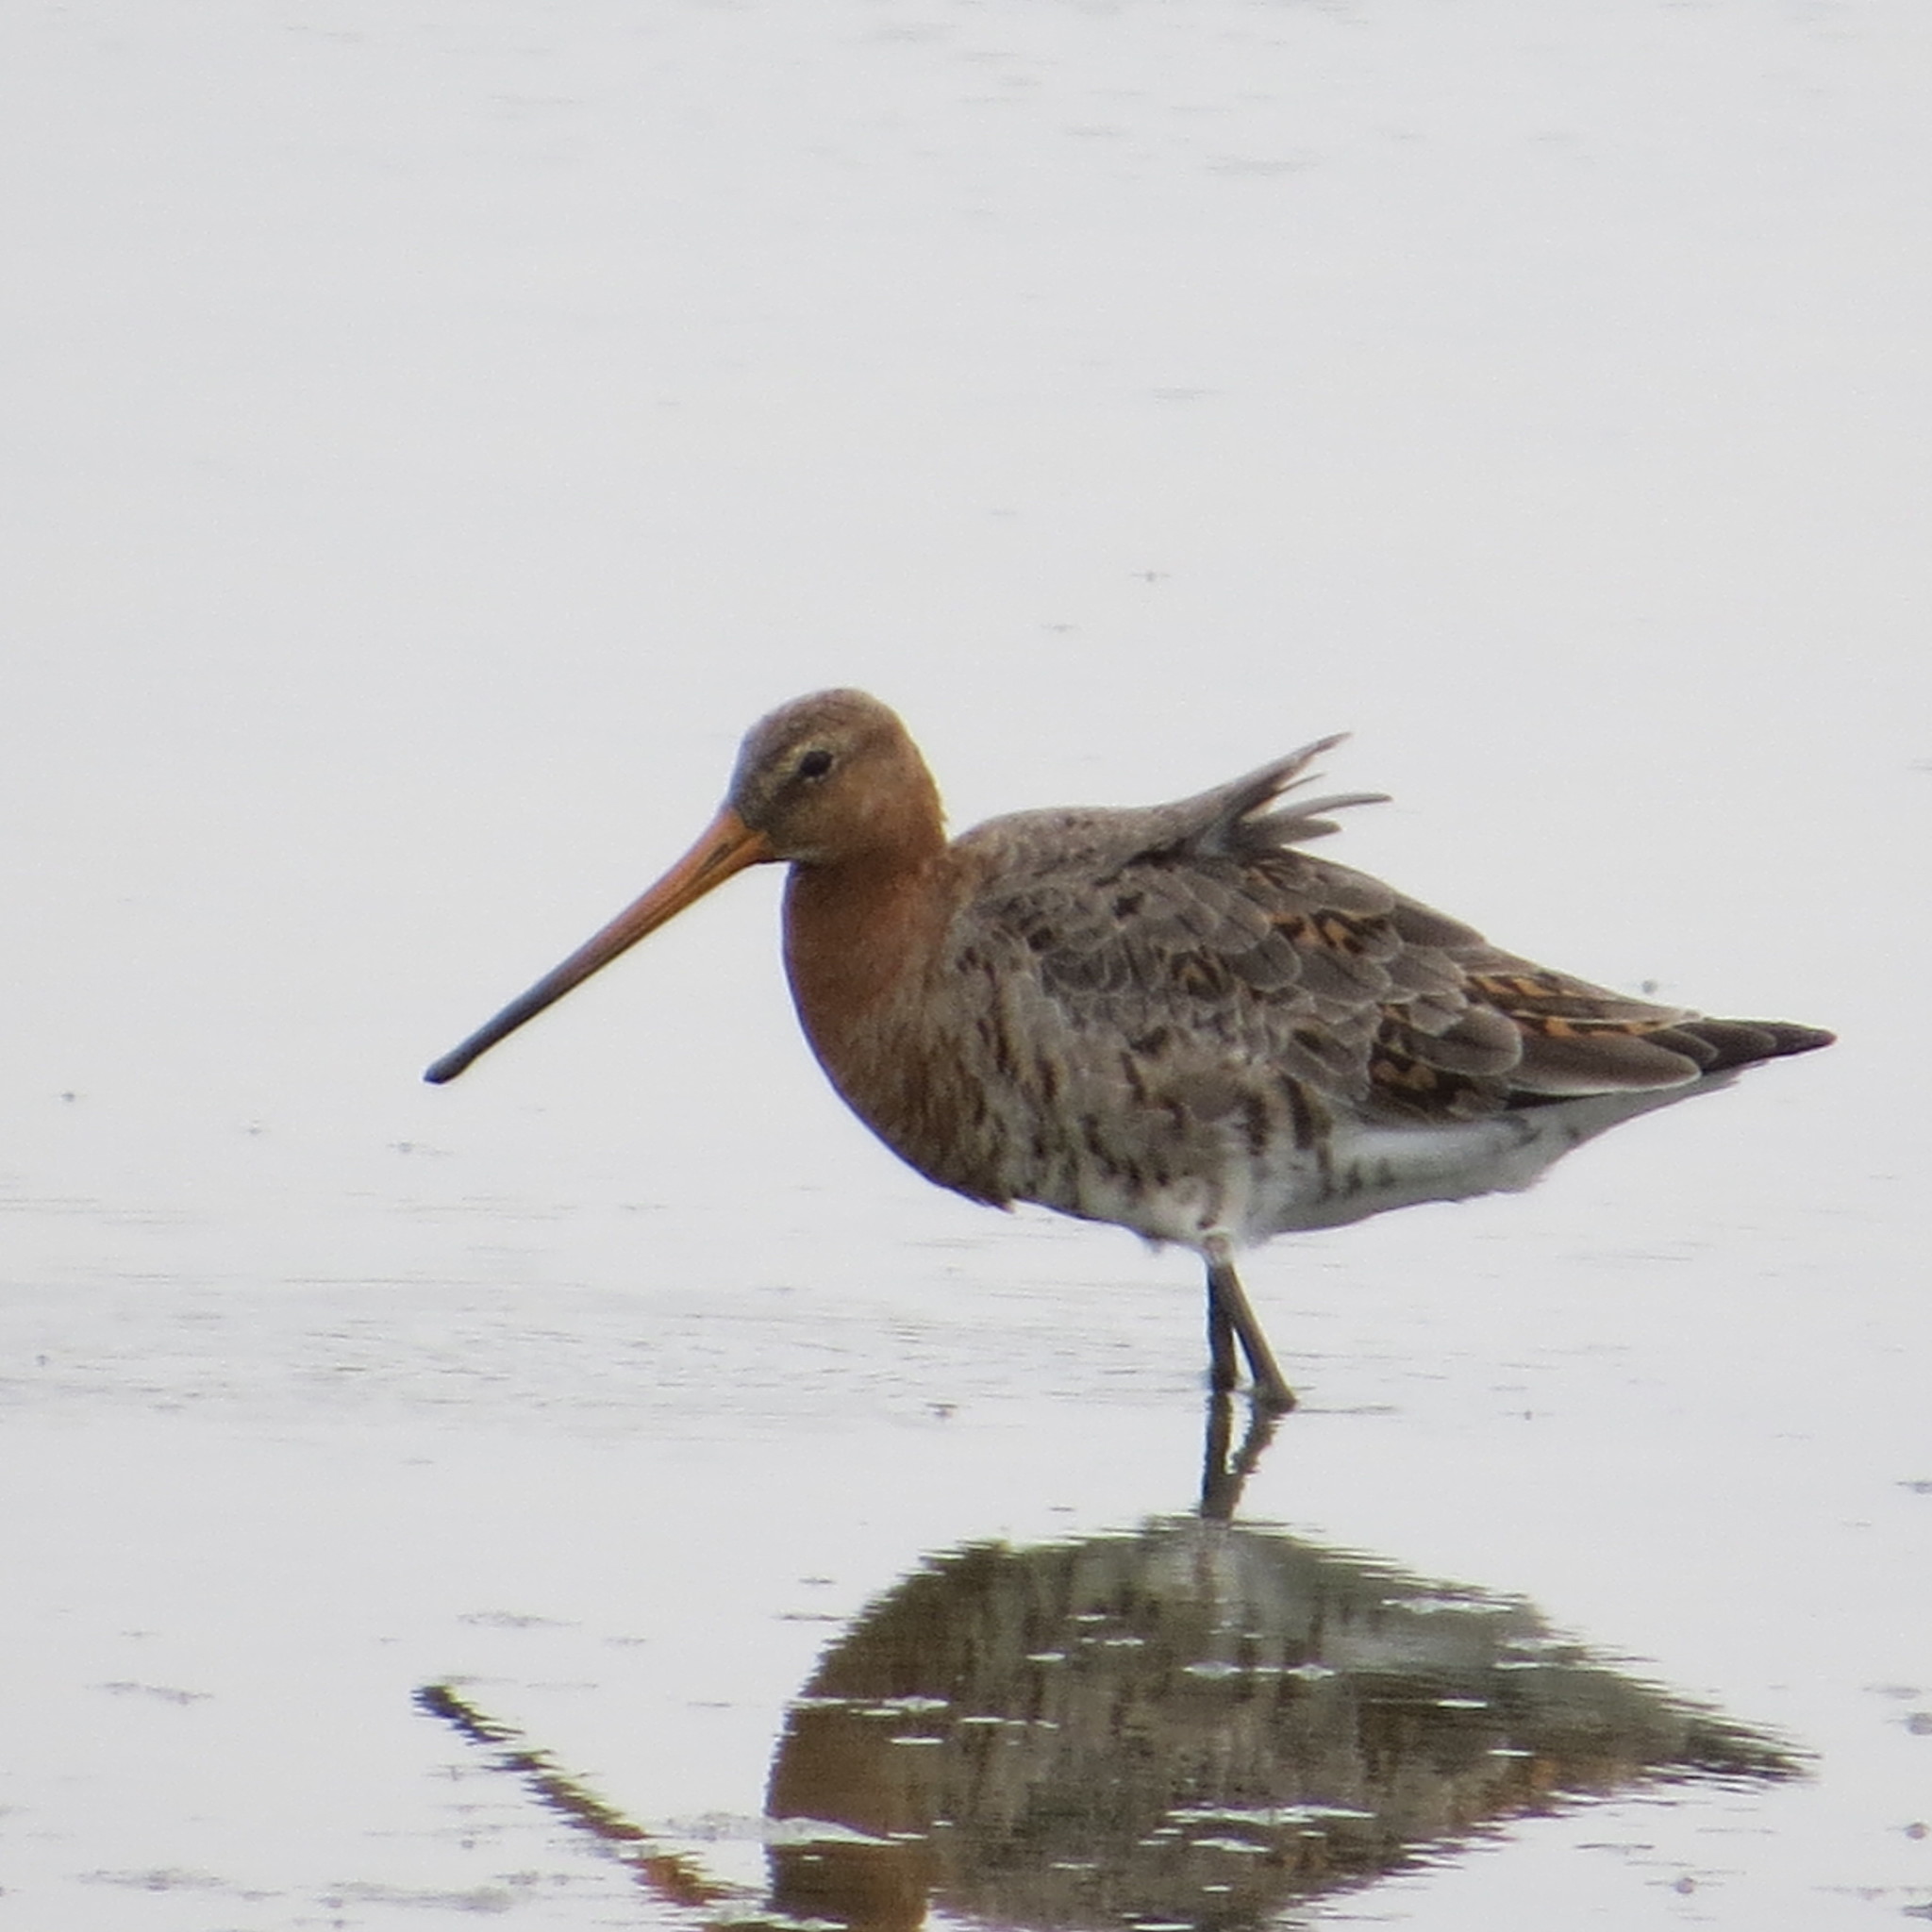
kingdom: Animalia
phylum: Chordata
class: Aves
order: Charadriiformes
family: Scolopacidae
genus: Limosa
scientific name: Limosa limosa
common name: Black-tailed godwit
